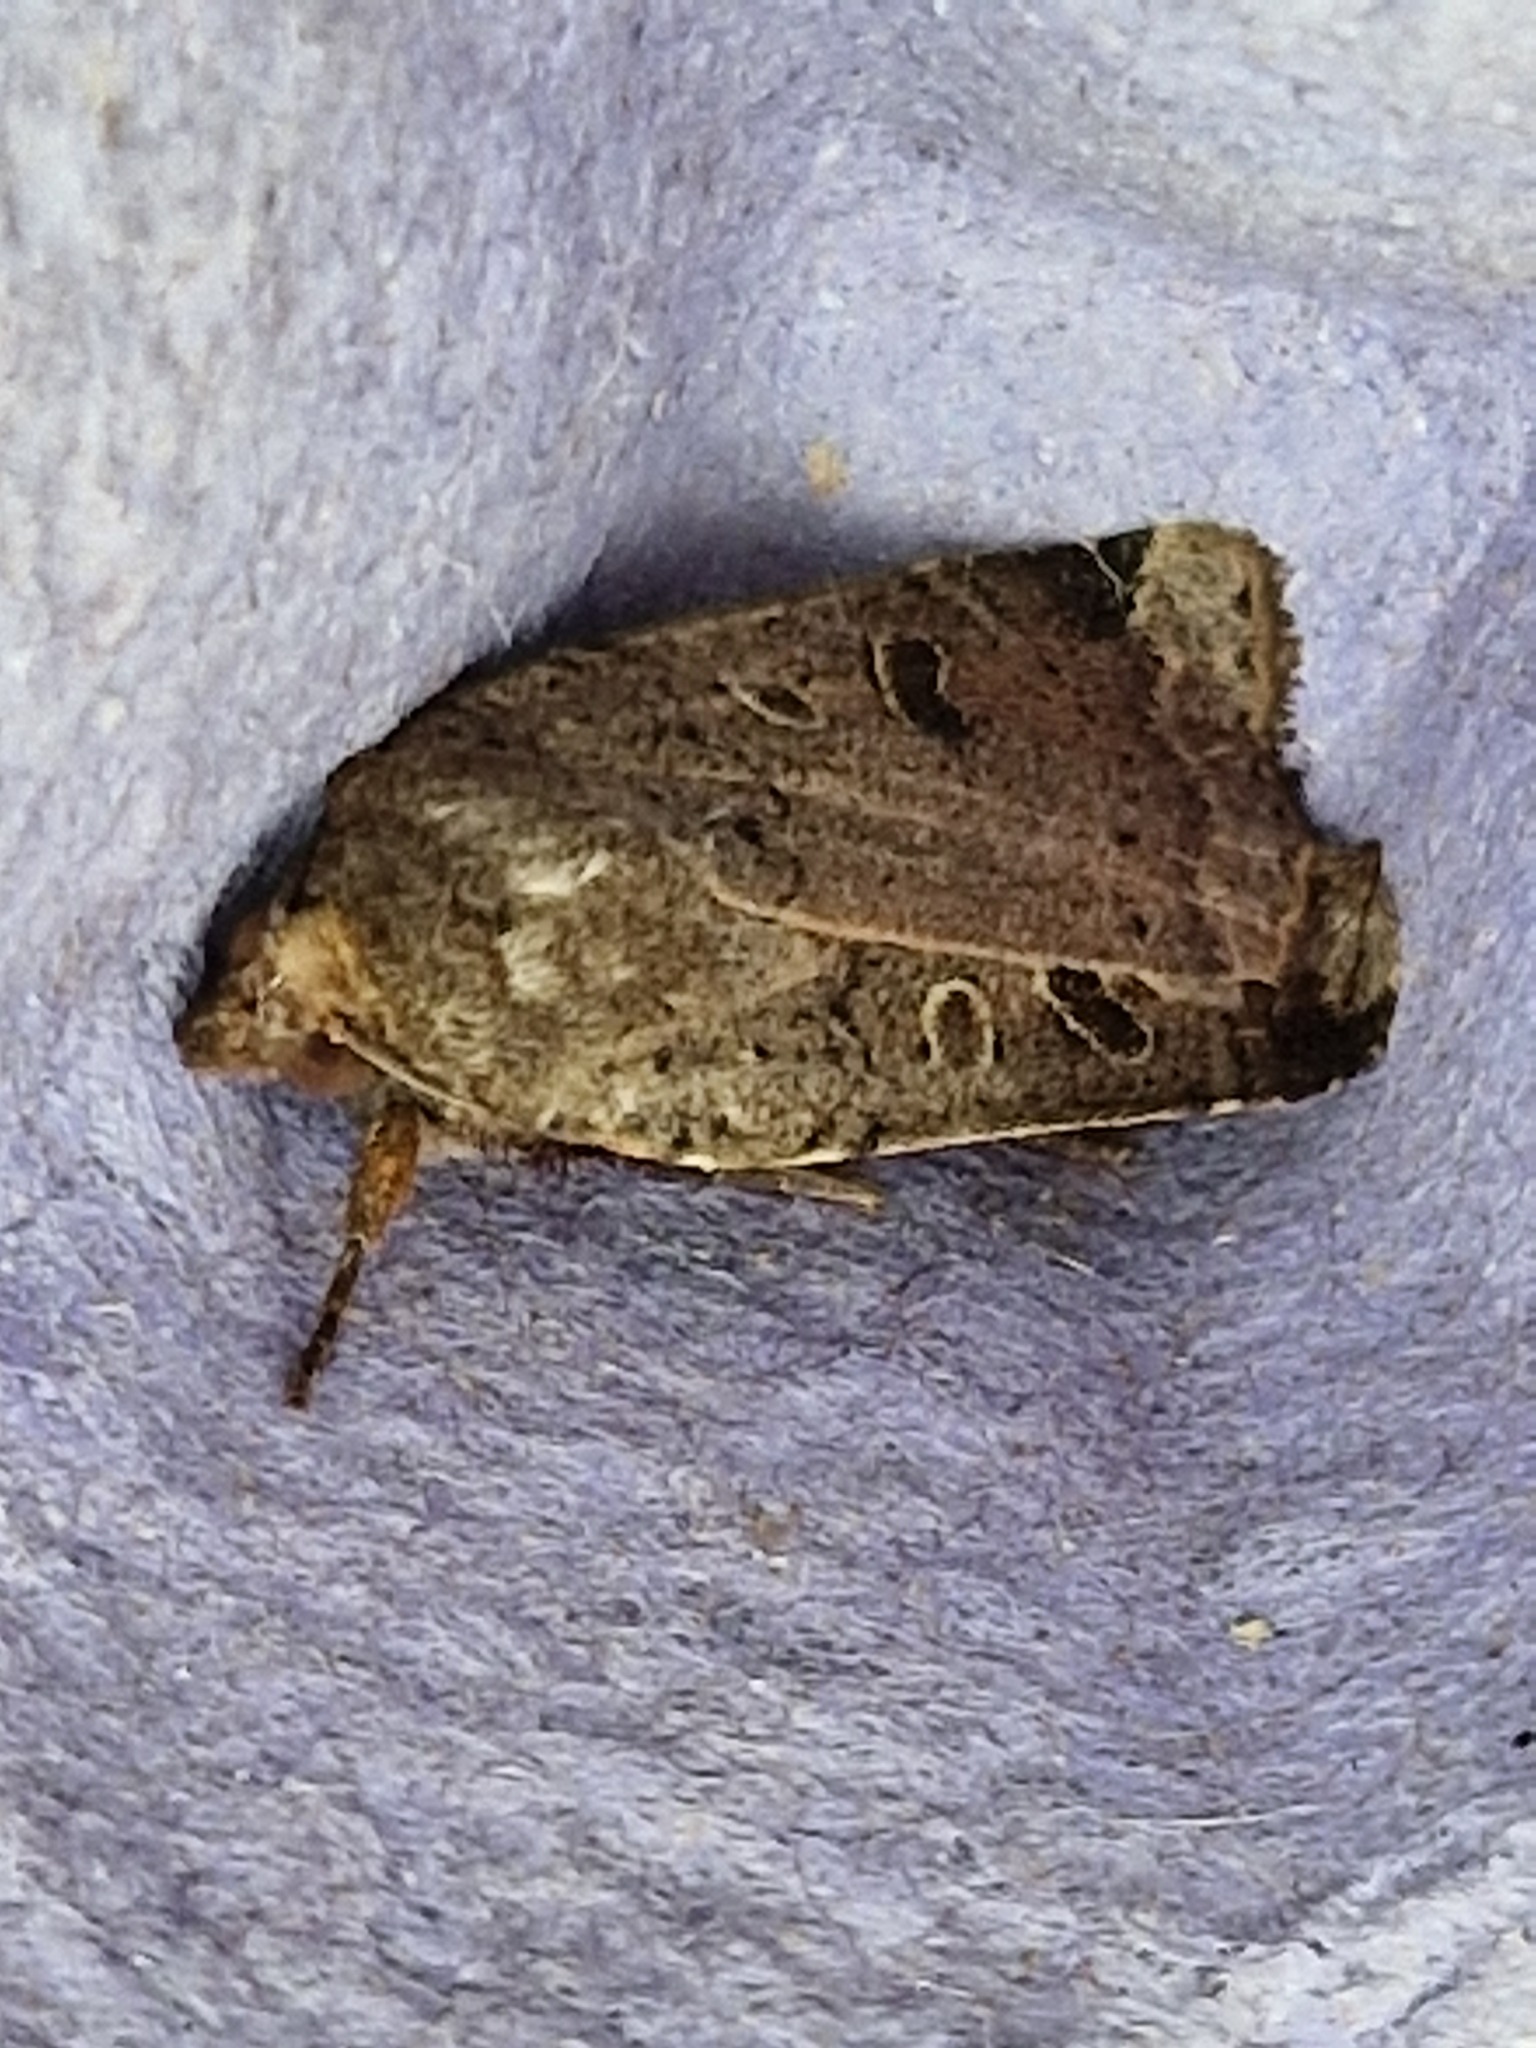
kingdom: Animalia
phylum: Arthropoda
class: Insecta
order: Lepidoptera
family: Noctuidae
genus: Noctua
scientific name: Noctua comes
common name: Lesser yellow underwing
